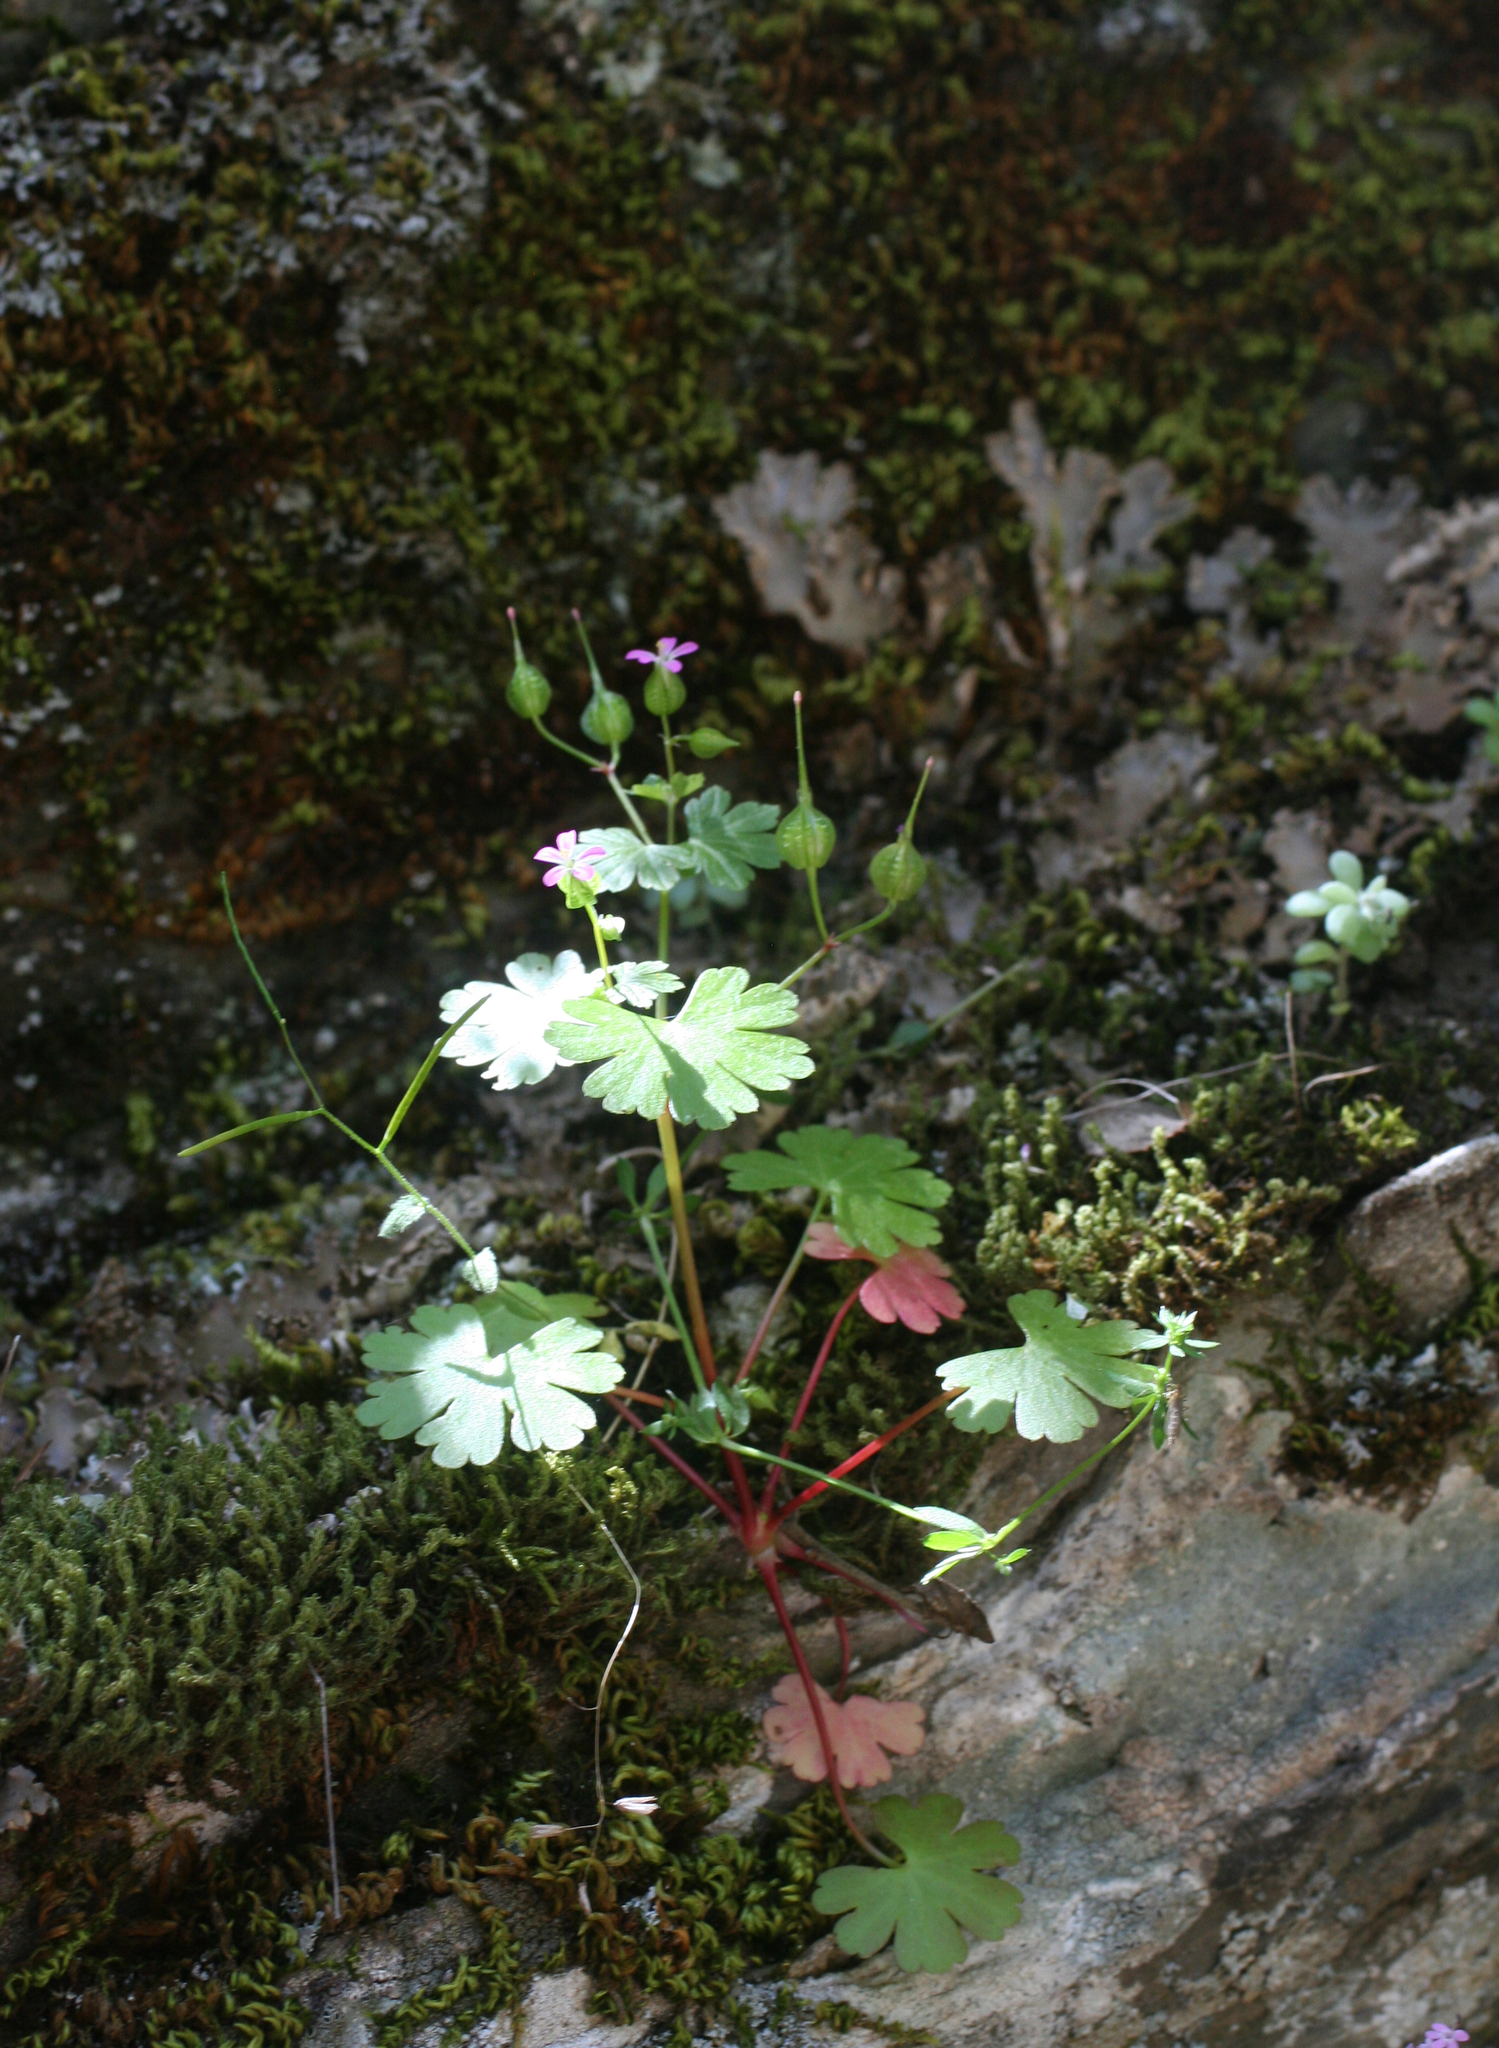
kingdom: Plantae
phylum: Tracheophyta
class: Magnoliopsida
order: Geraniales
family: Geraniaceae
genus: Geranium
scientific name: Geranium lucidum
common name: Shining crane's-bill
